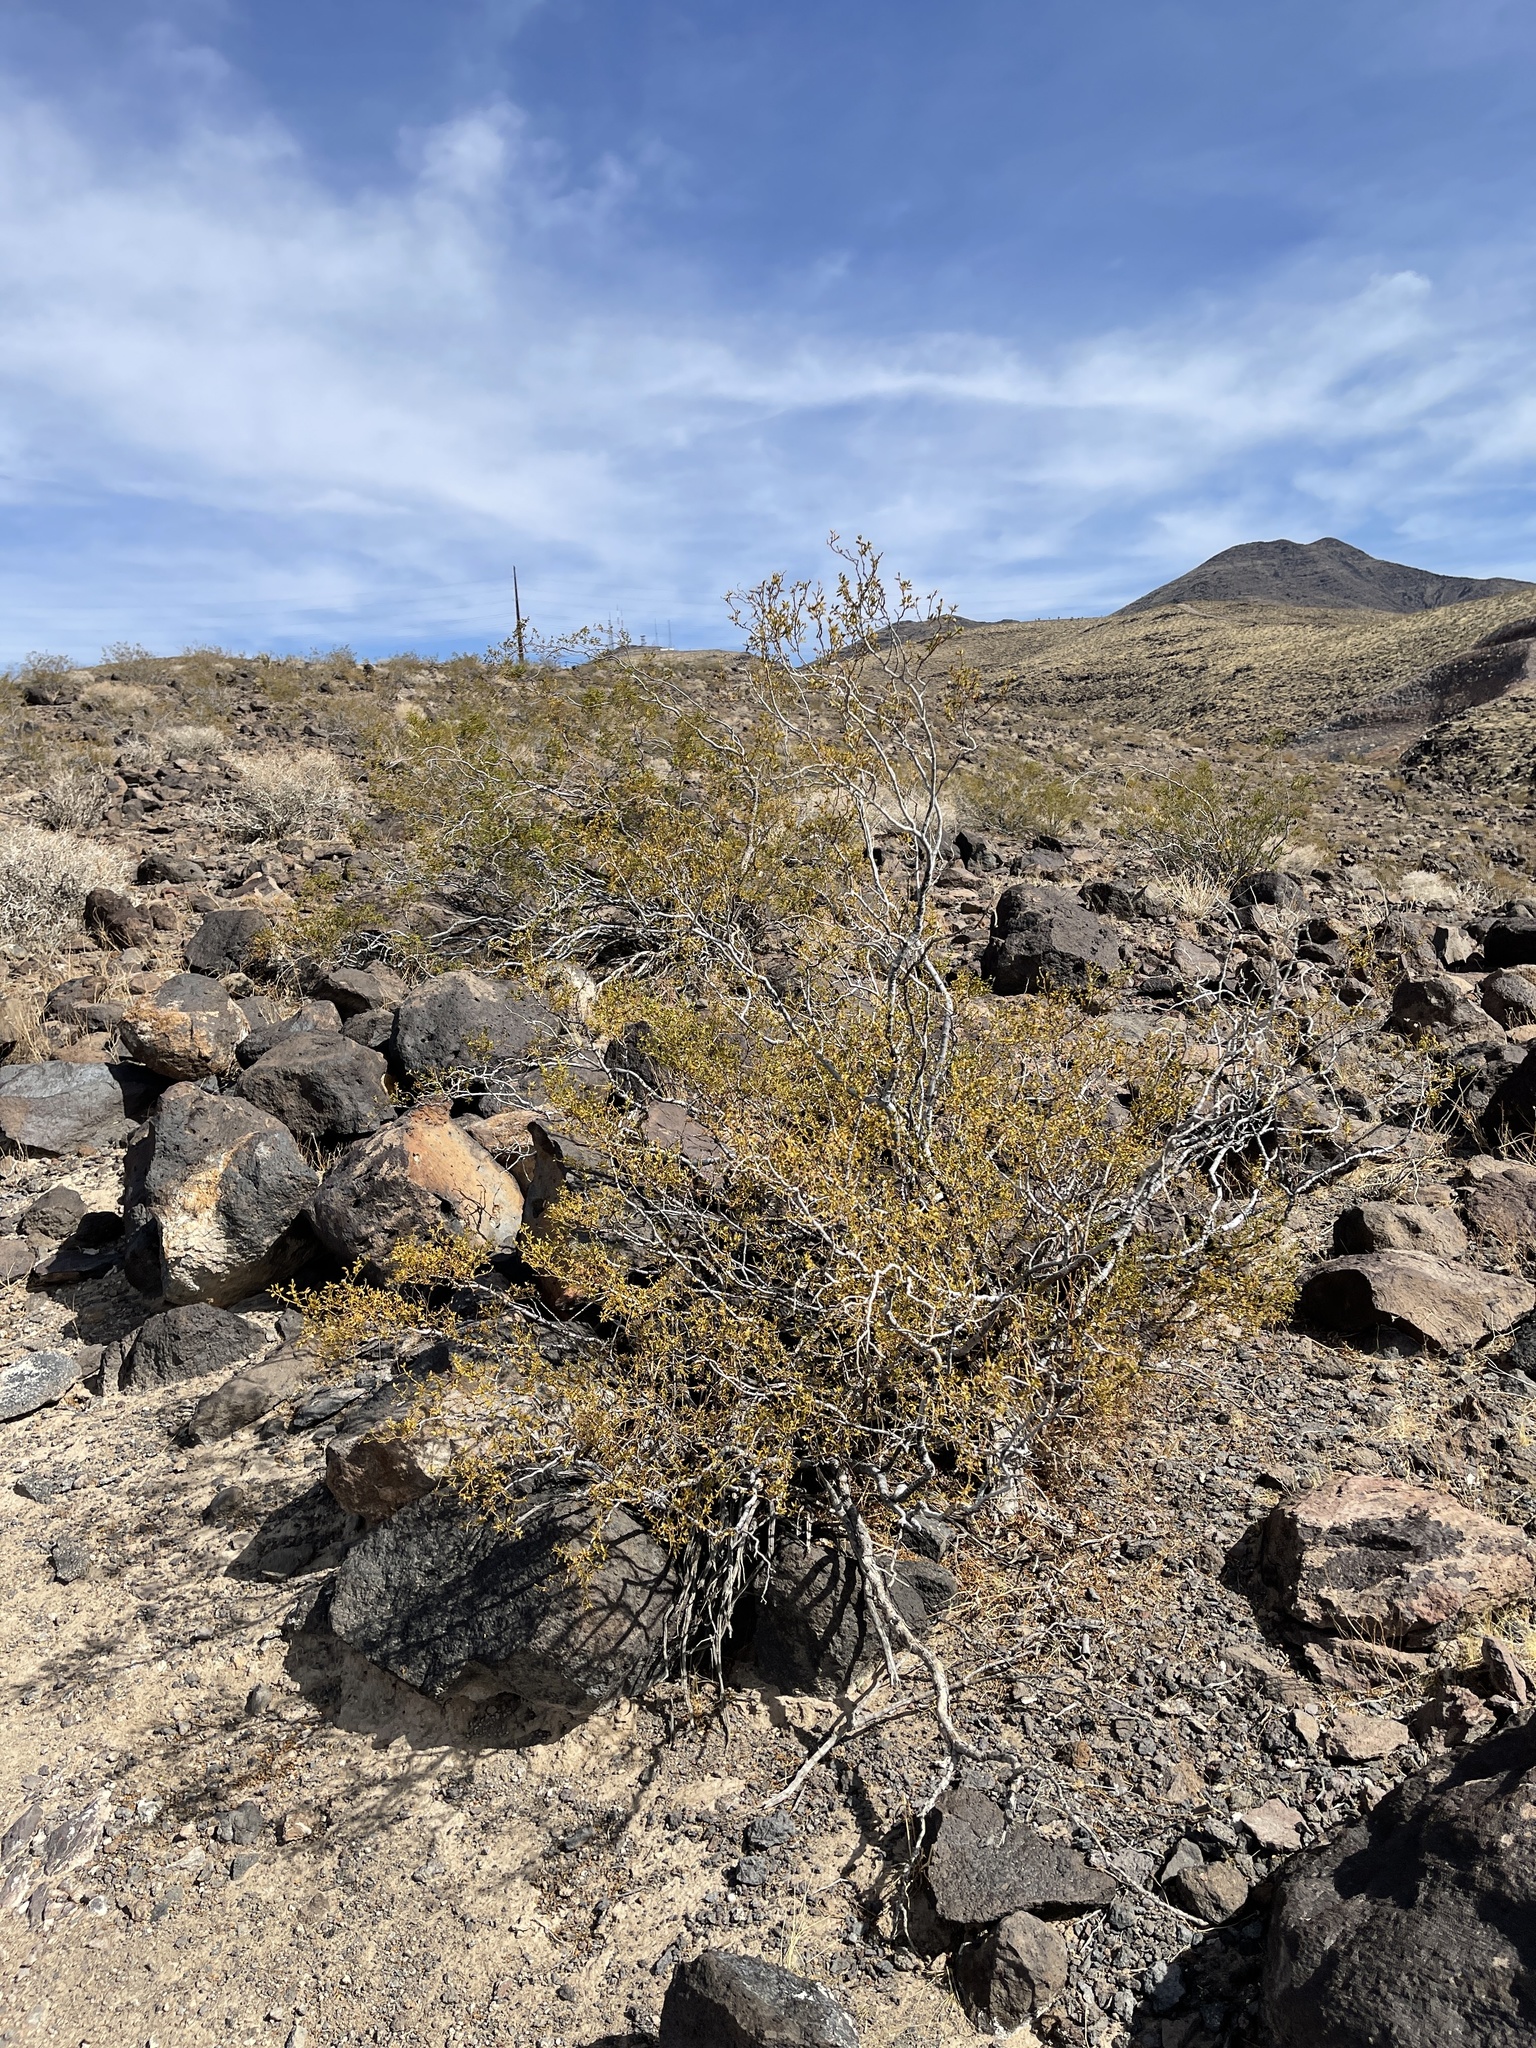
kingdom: Plantae
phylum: Tracheophyta
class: Magnoliopsida
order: Zygophyllales
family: Zygophyllaceae
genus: Larrea
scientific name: Larrea tridentata
